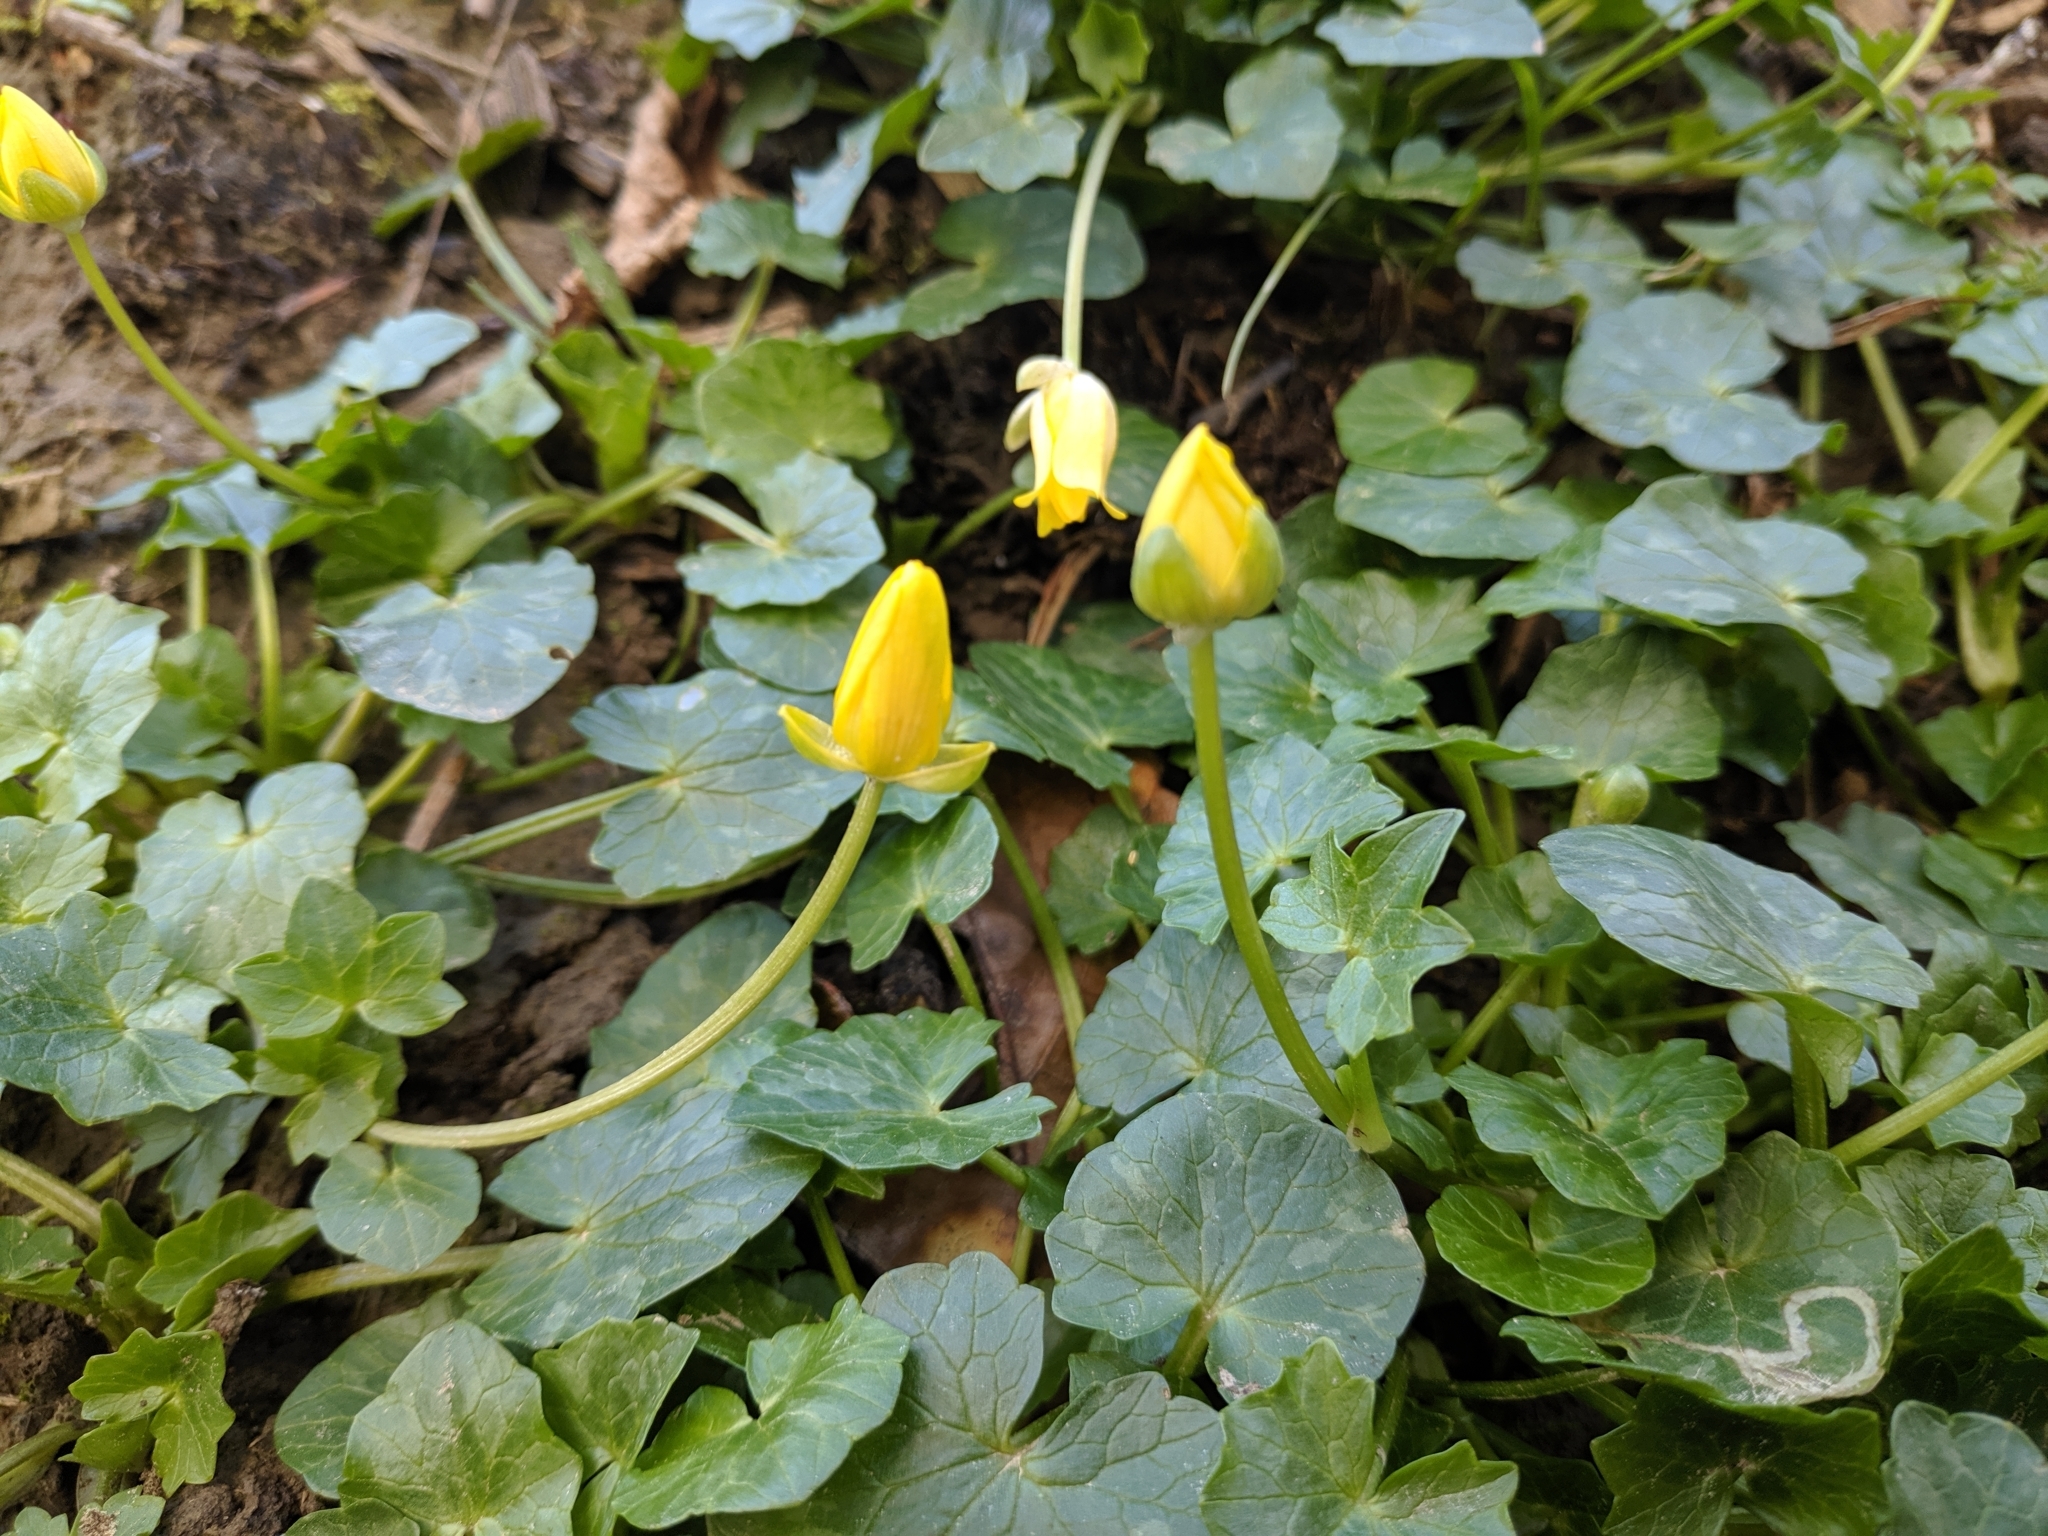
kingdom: Plantae
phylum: Tracheophyta
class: Magnoliopsida
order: Ranunculales
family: Ranunculaceae
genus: Ficaria
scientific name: Ficaria verna
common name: Lesser celandine
